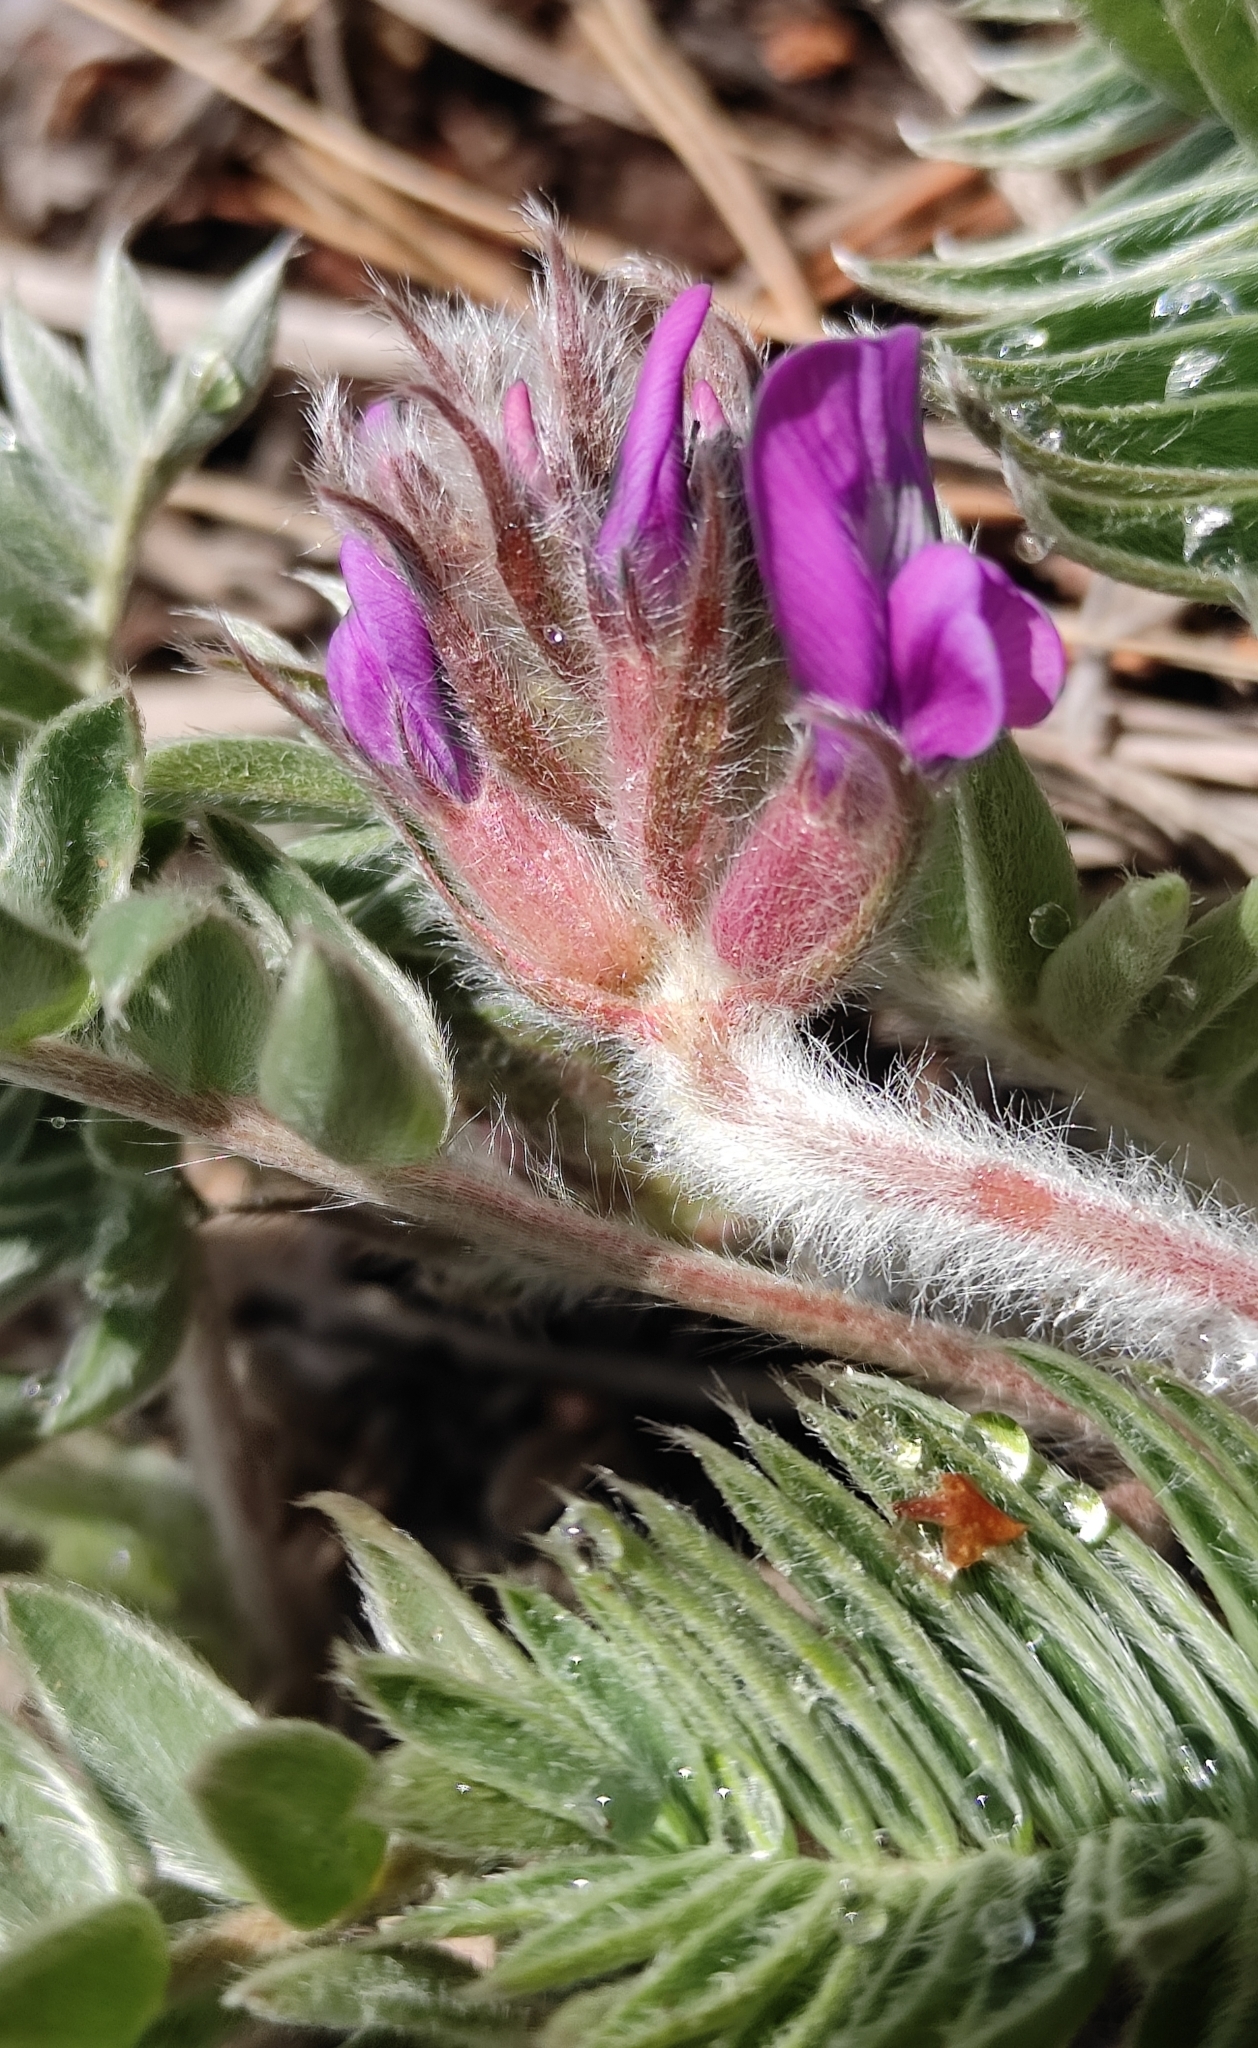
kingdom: Plantae
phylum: Tracheophyta
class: Magnoliopsida
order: Fabales
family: Fabaceae
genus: Oxytropis
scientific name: Oxytropis strobilacea
